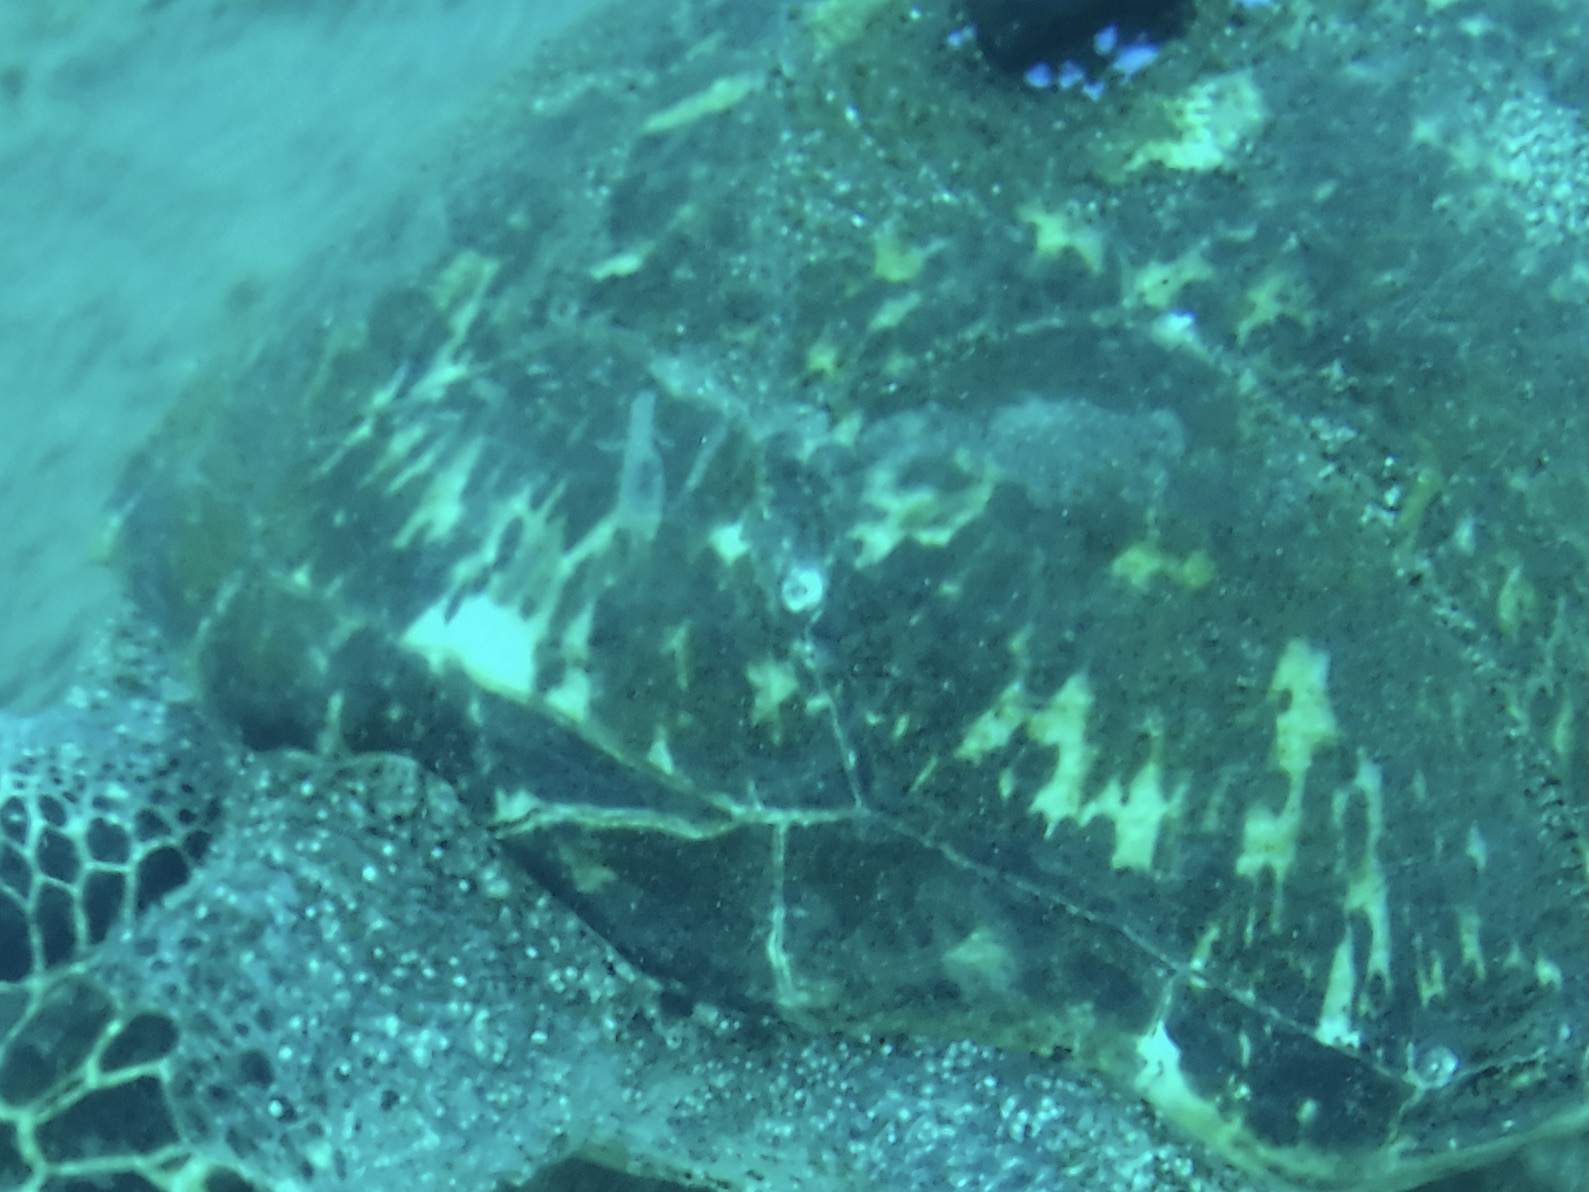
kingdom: Animalia
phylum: Arthropoda
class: Maxillopoda
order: Sessilia
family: Chelonibiidae
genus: Chelonibia
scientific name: Chelonibia testudinaria
